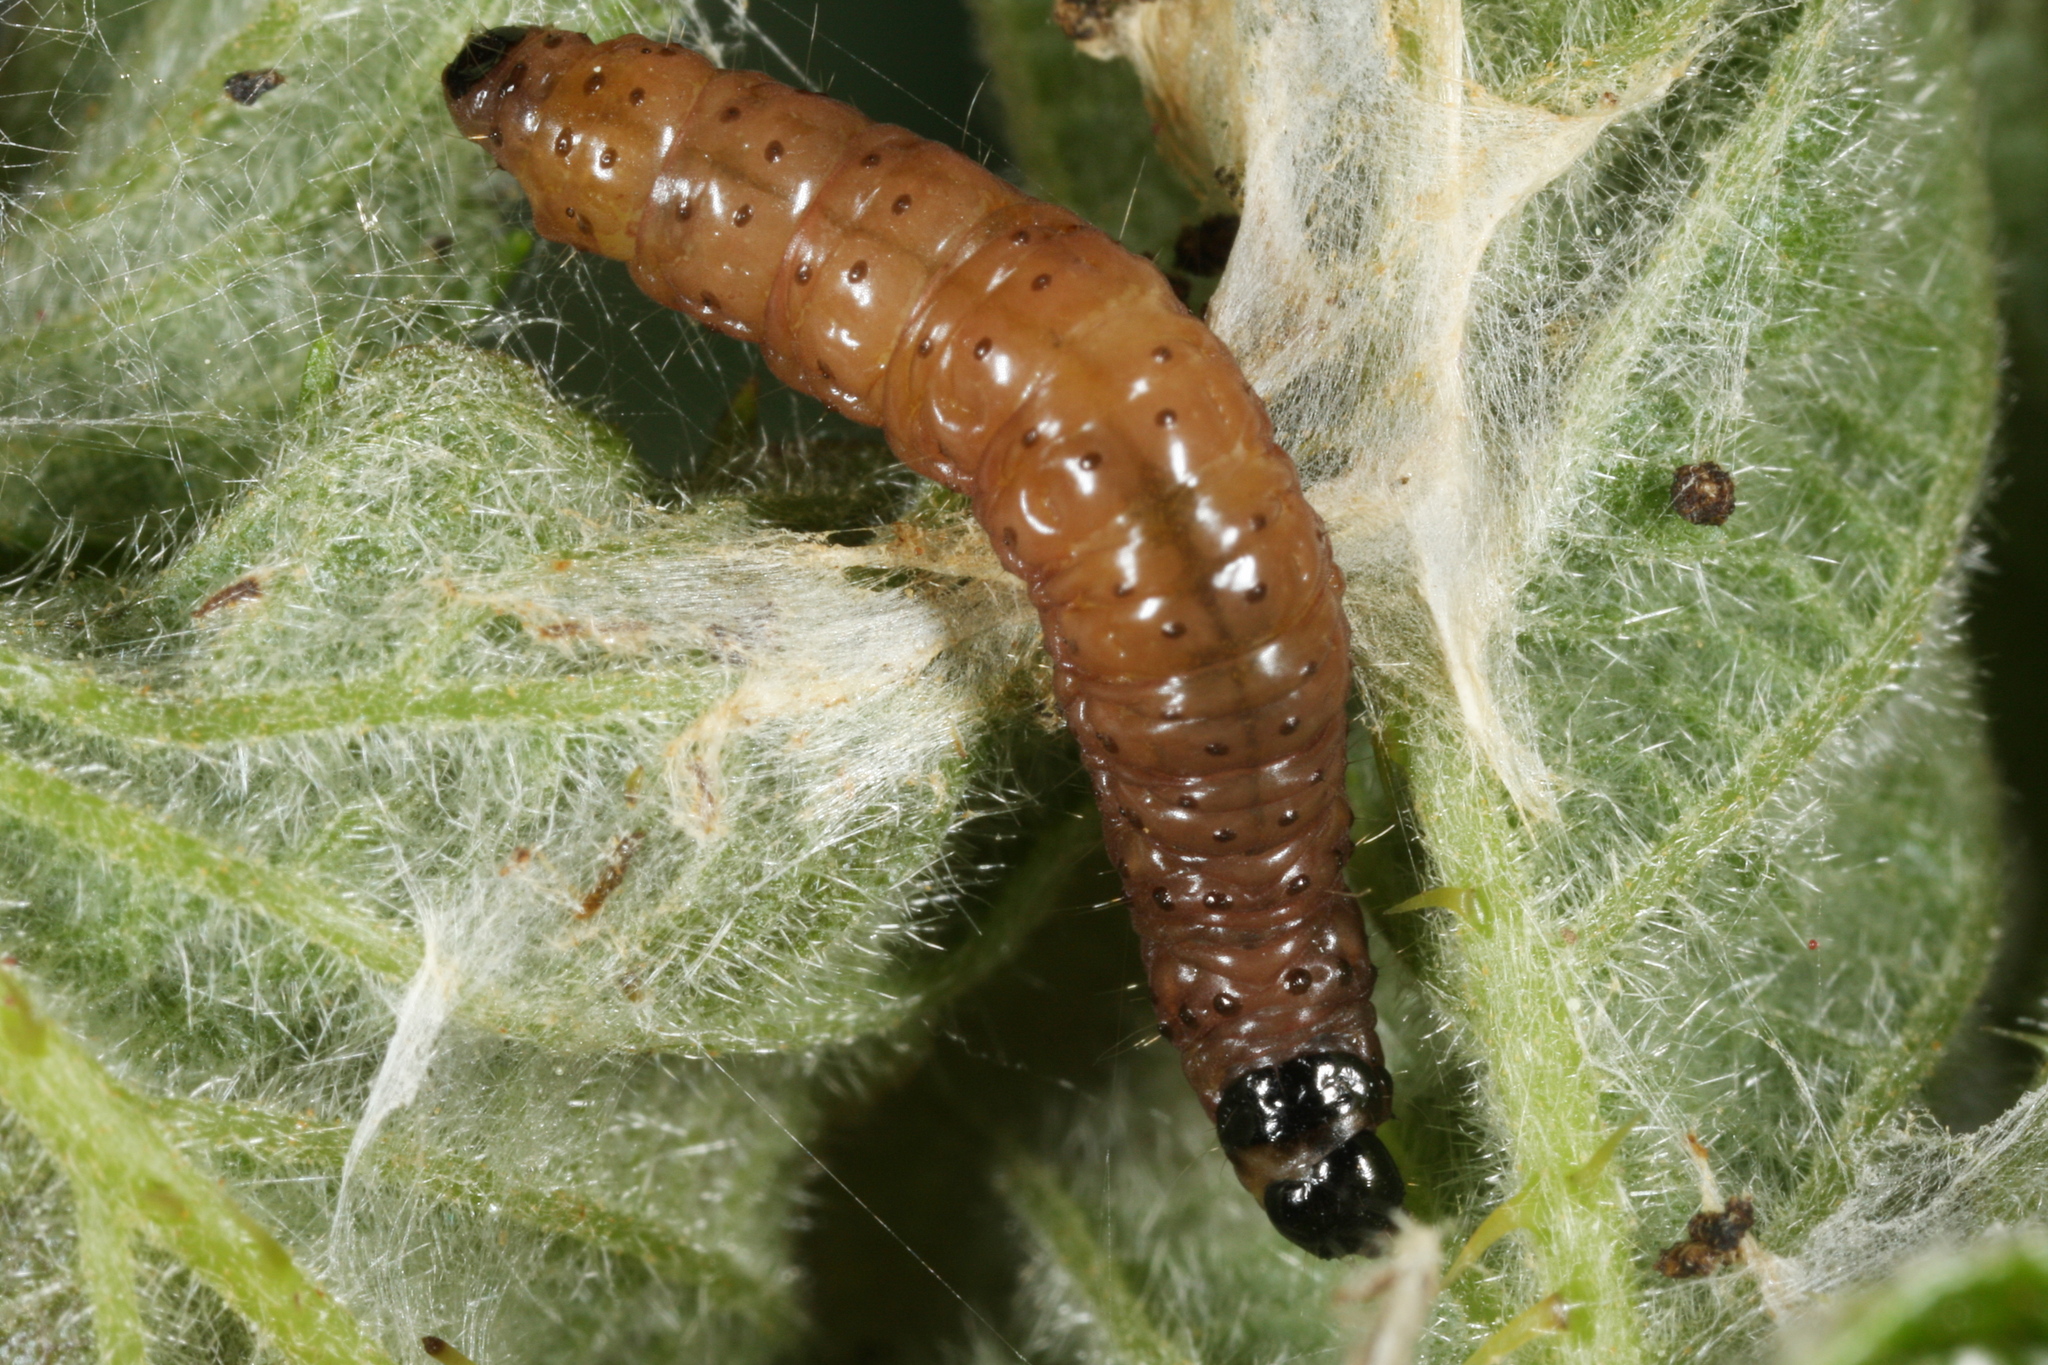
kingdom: Animalia
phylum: Arthropoda
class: Insecta
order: Lepidoptera
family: Tortricidae
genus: Notocelia
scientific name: Notocelia uddmanniana
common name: Bramble shoot moth
